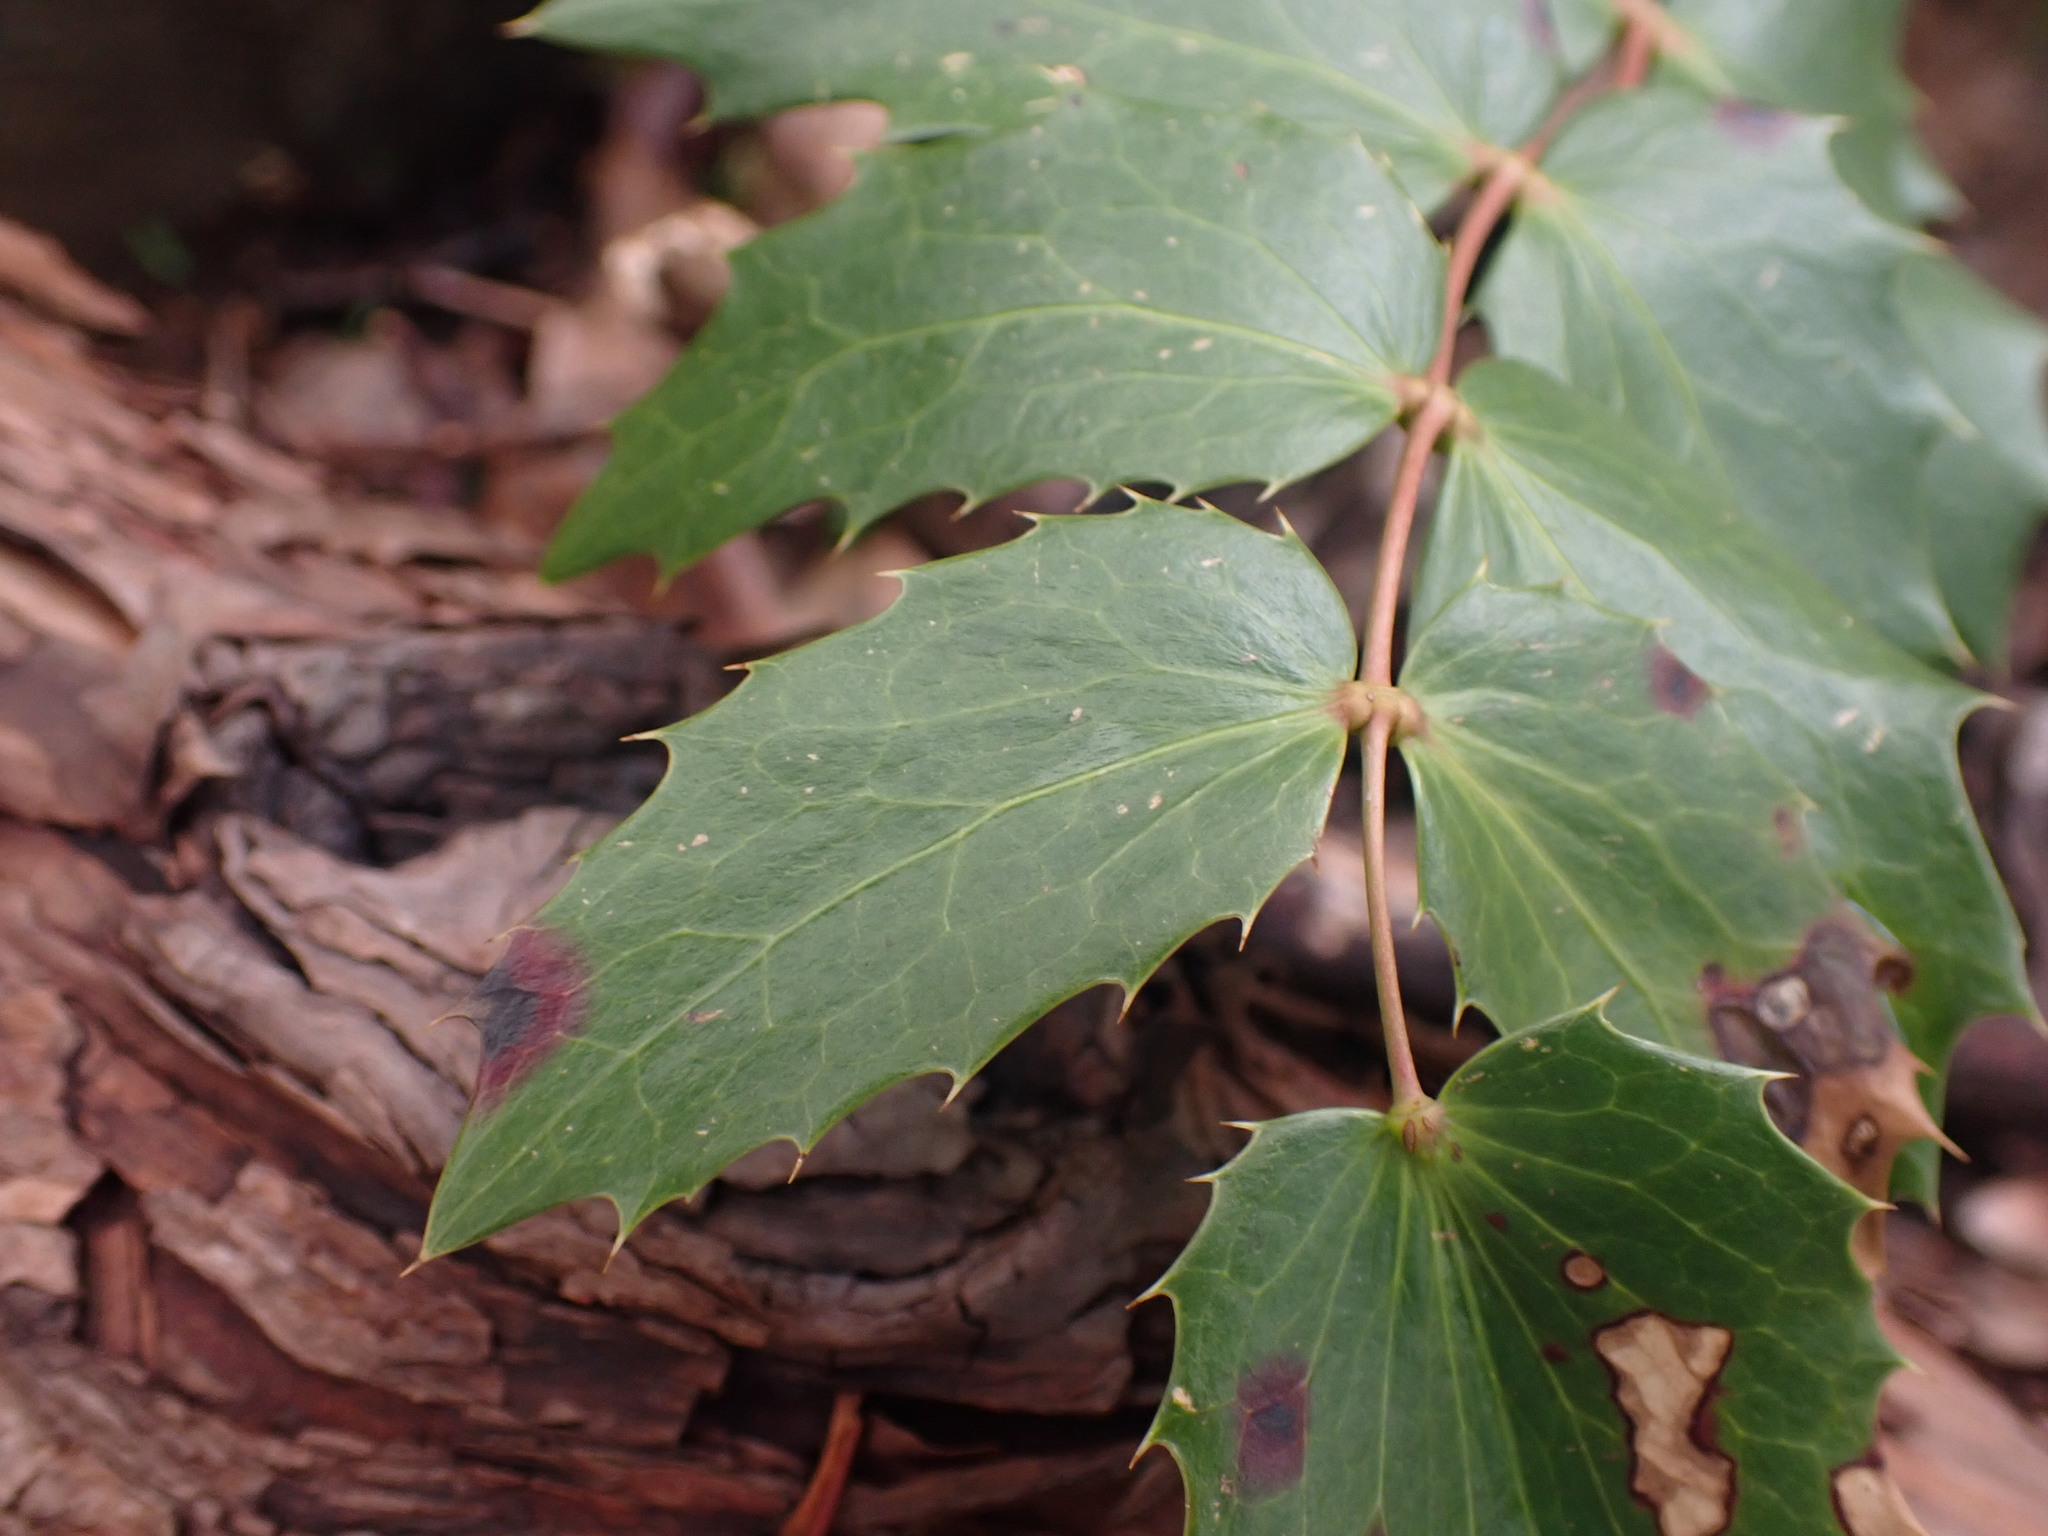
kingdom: Plantae
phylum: Tracheophyta
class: Magnoliopsida
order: Ranunculales
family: Berberidaceae
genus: Mahonia
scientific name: Mahonia nervosa
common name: Cascade oregon-grape
